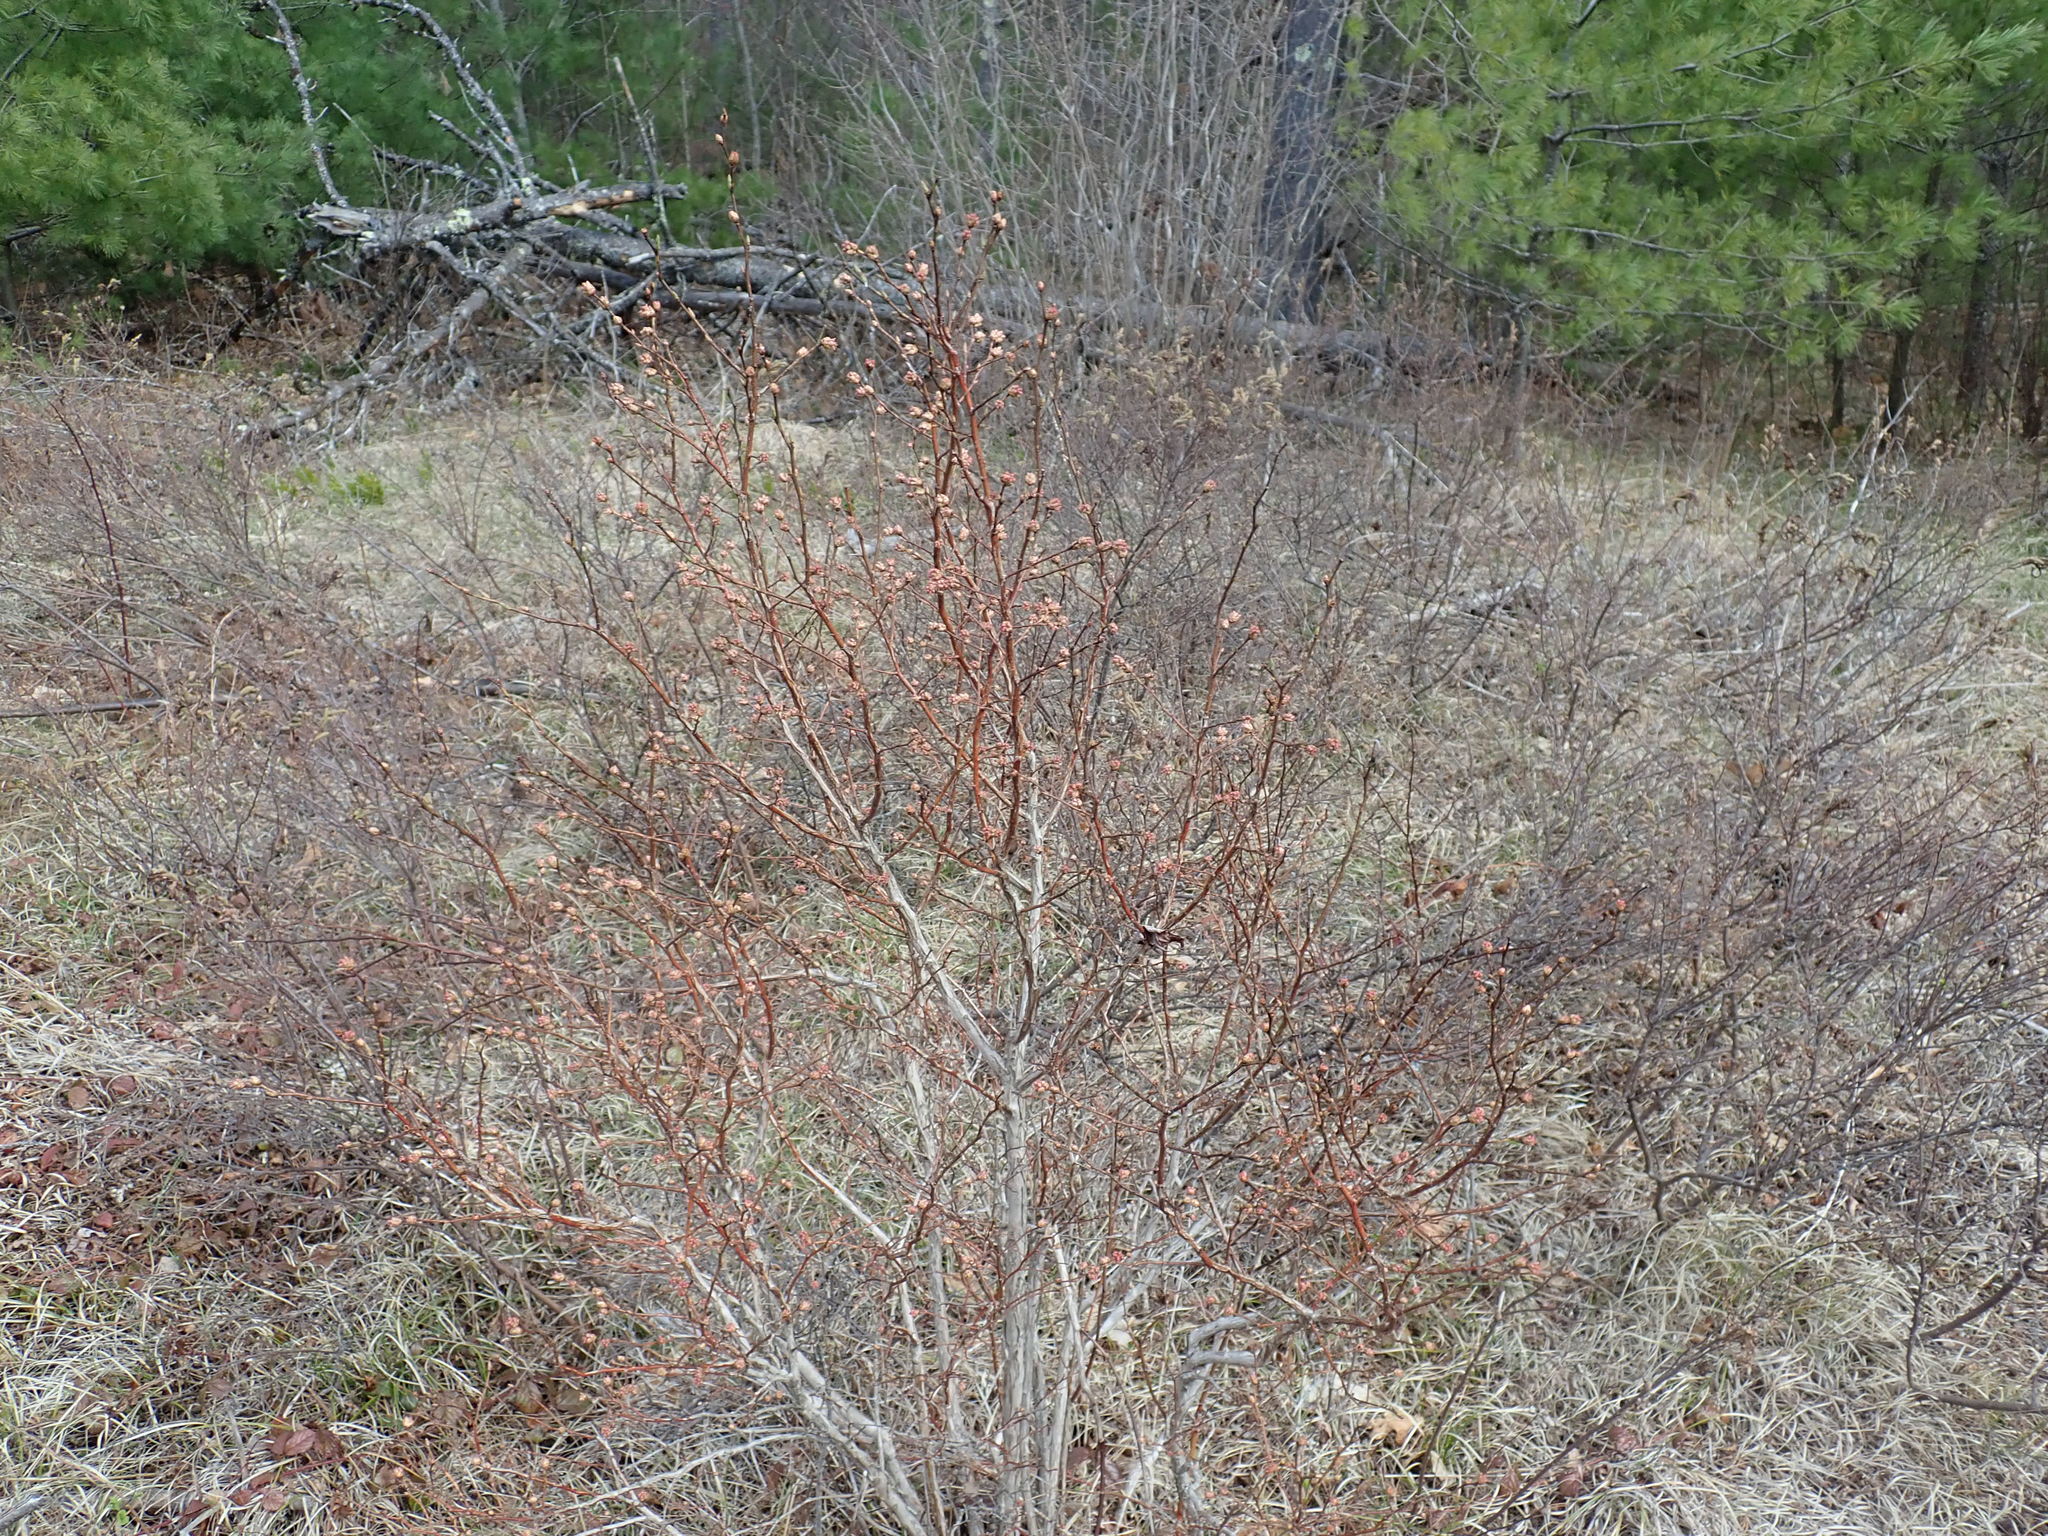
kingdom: Plantae
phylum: Tracheophyta
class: Magnoliopsida
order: Ericales
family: Ericaceae
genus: Vaccinium
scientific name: Vaccinium corymbosum
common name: Blueberry
